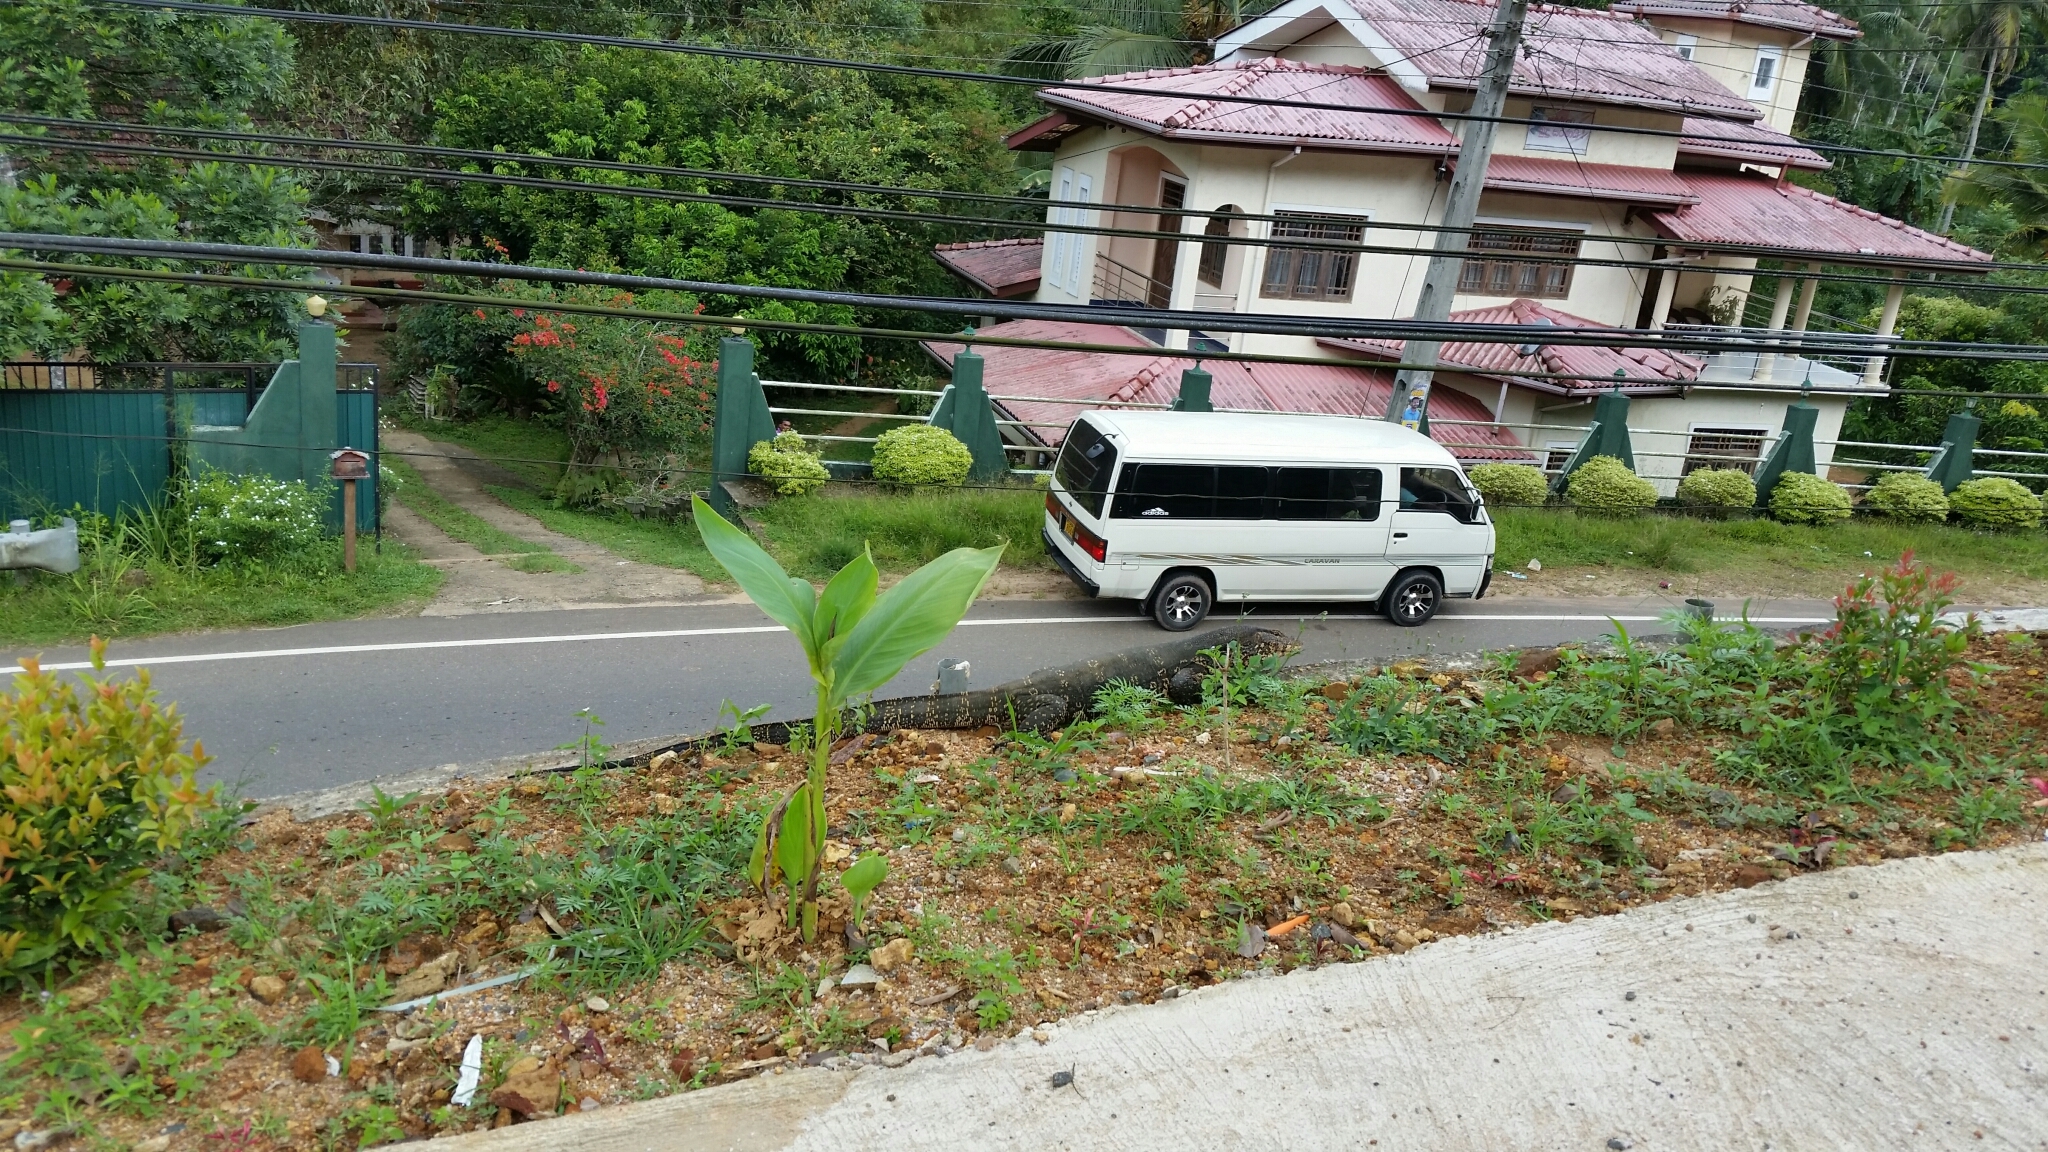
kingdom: Animalia
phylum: Chordata
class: Squamata
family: Varanidae
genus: Varanus
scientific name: Varanus salvator
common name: Common water monitor
